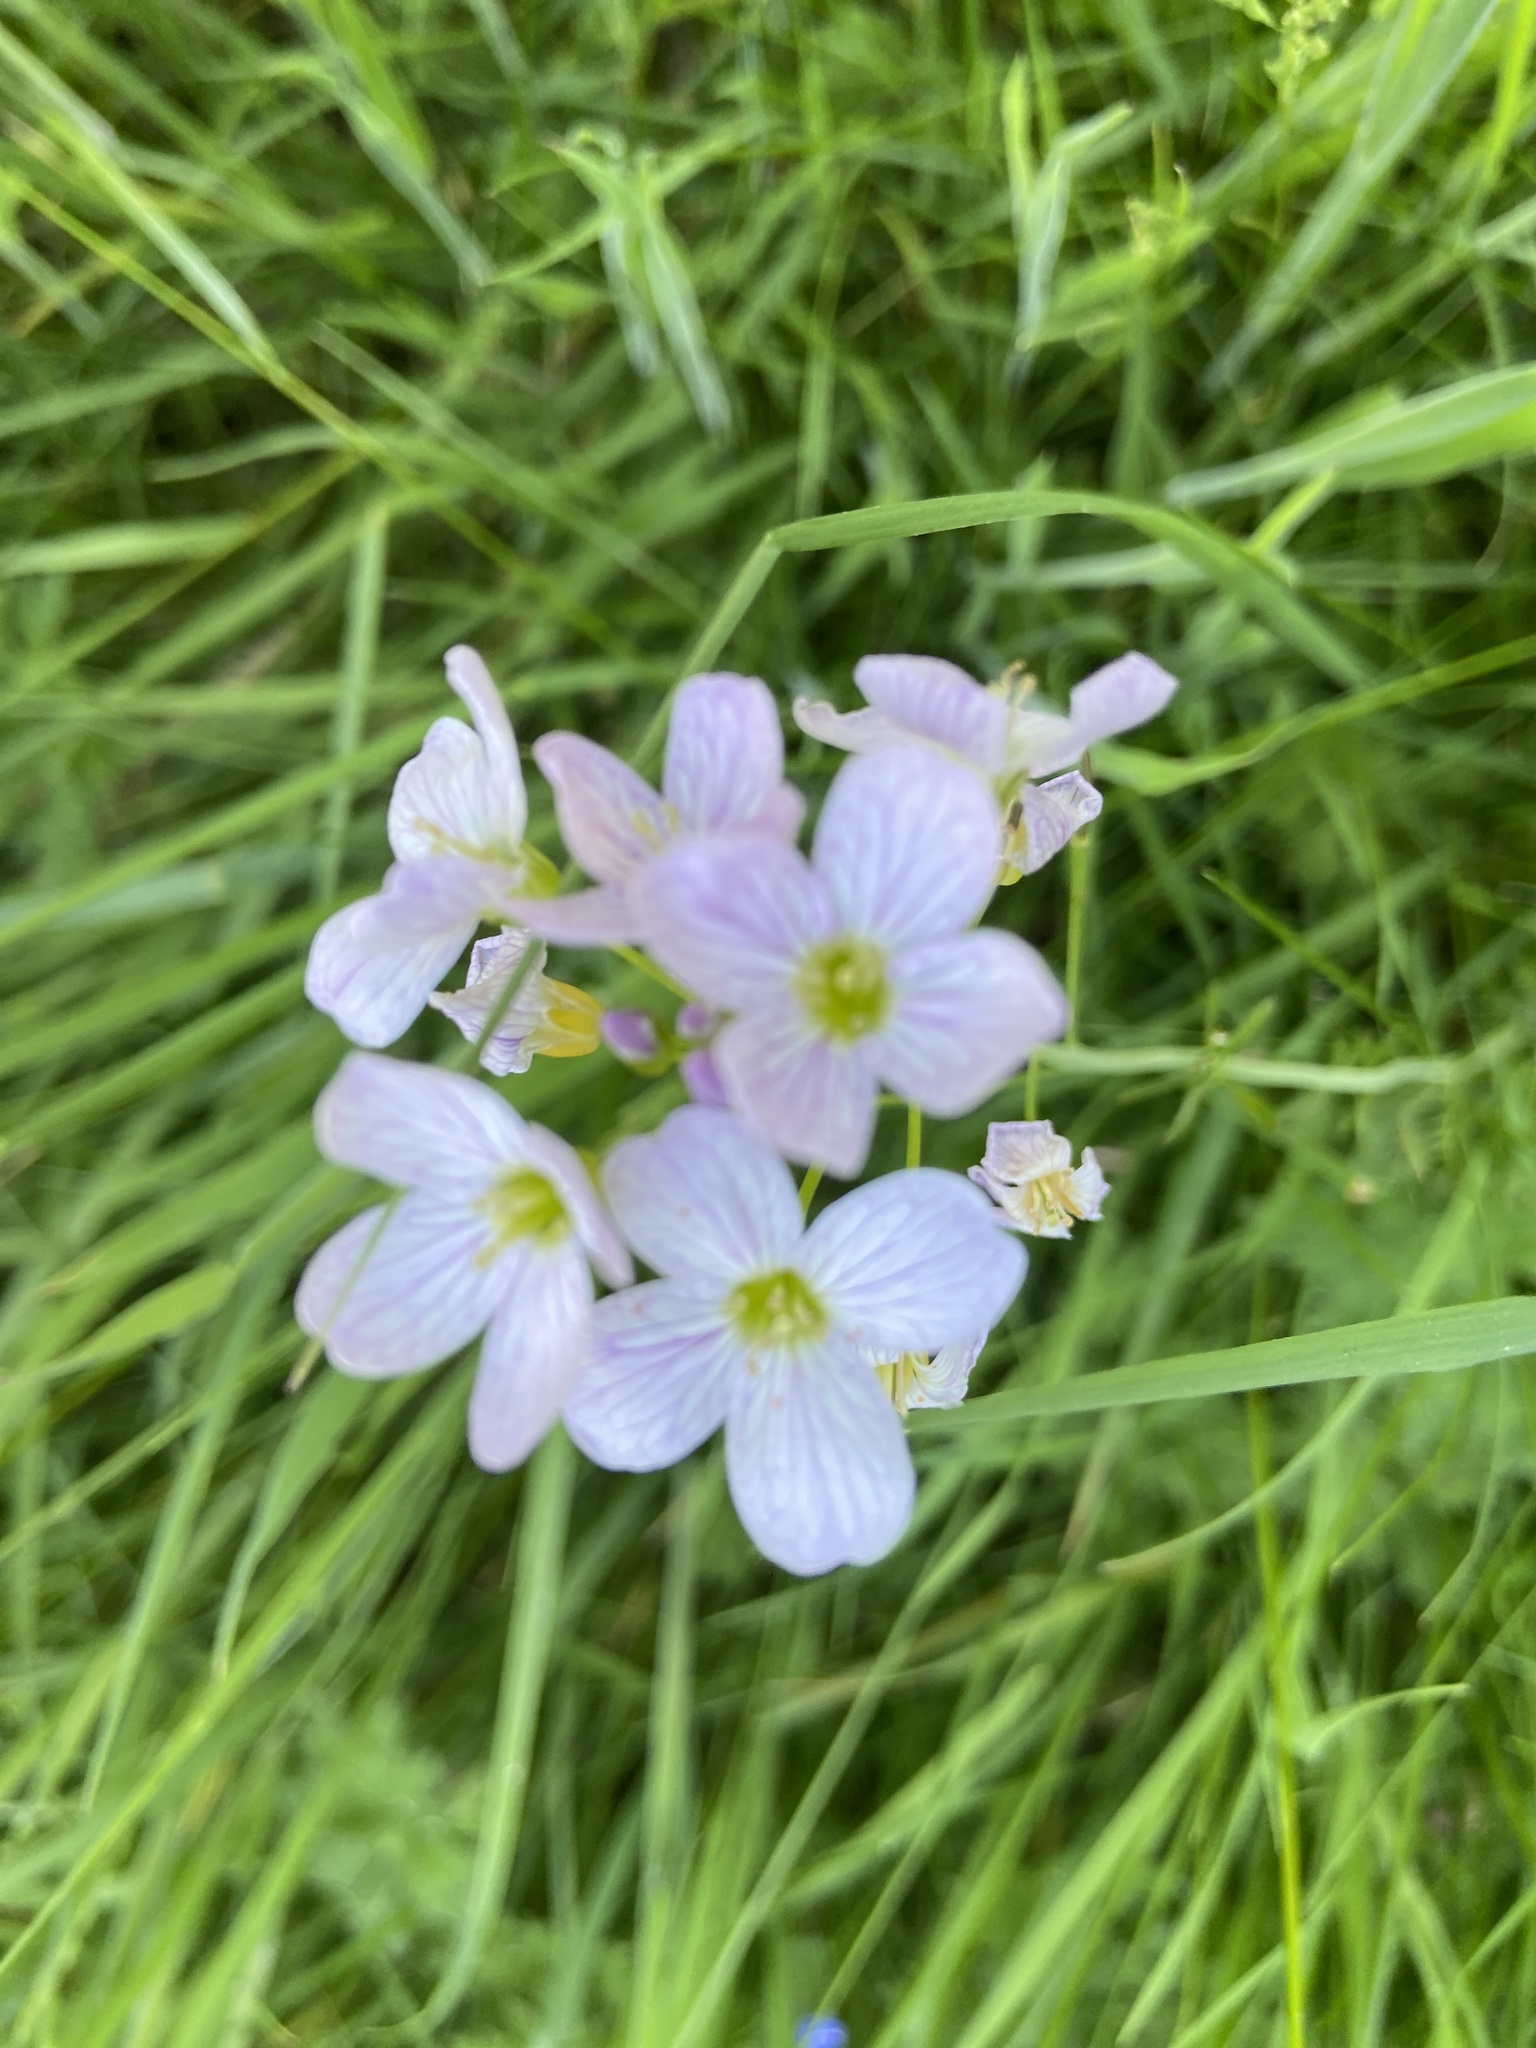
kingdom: Plantae
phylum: Tracheophyta
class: Magnoliopsida
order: Brassicales
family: Brassicaceae
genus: Cardamine
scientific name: Cardamine pratensis
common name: Cuckoo flower
